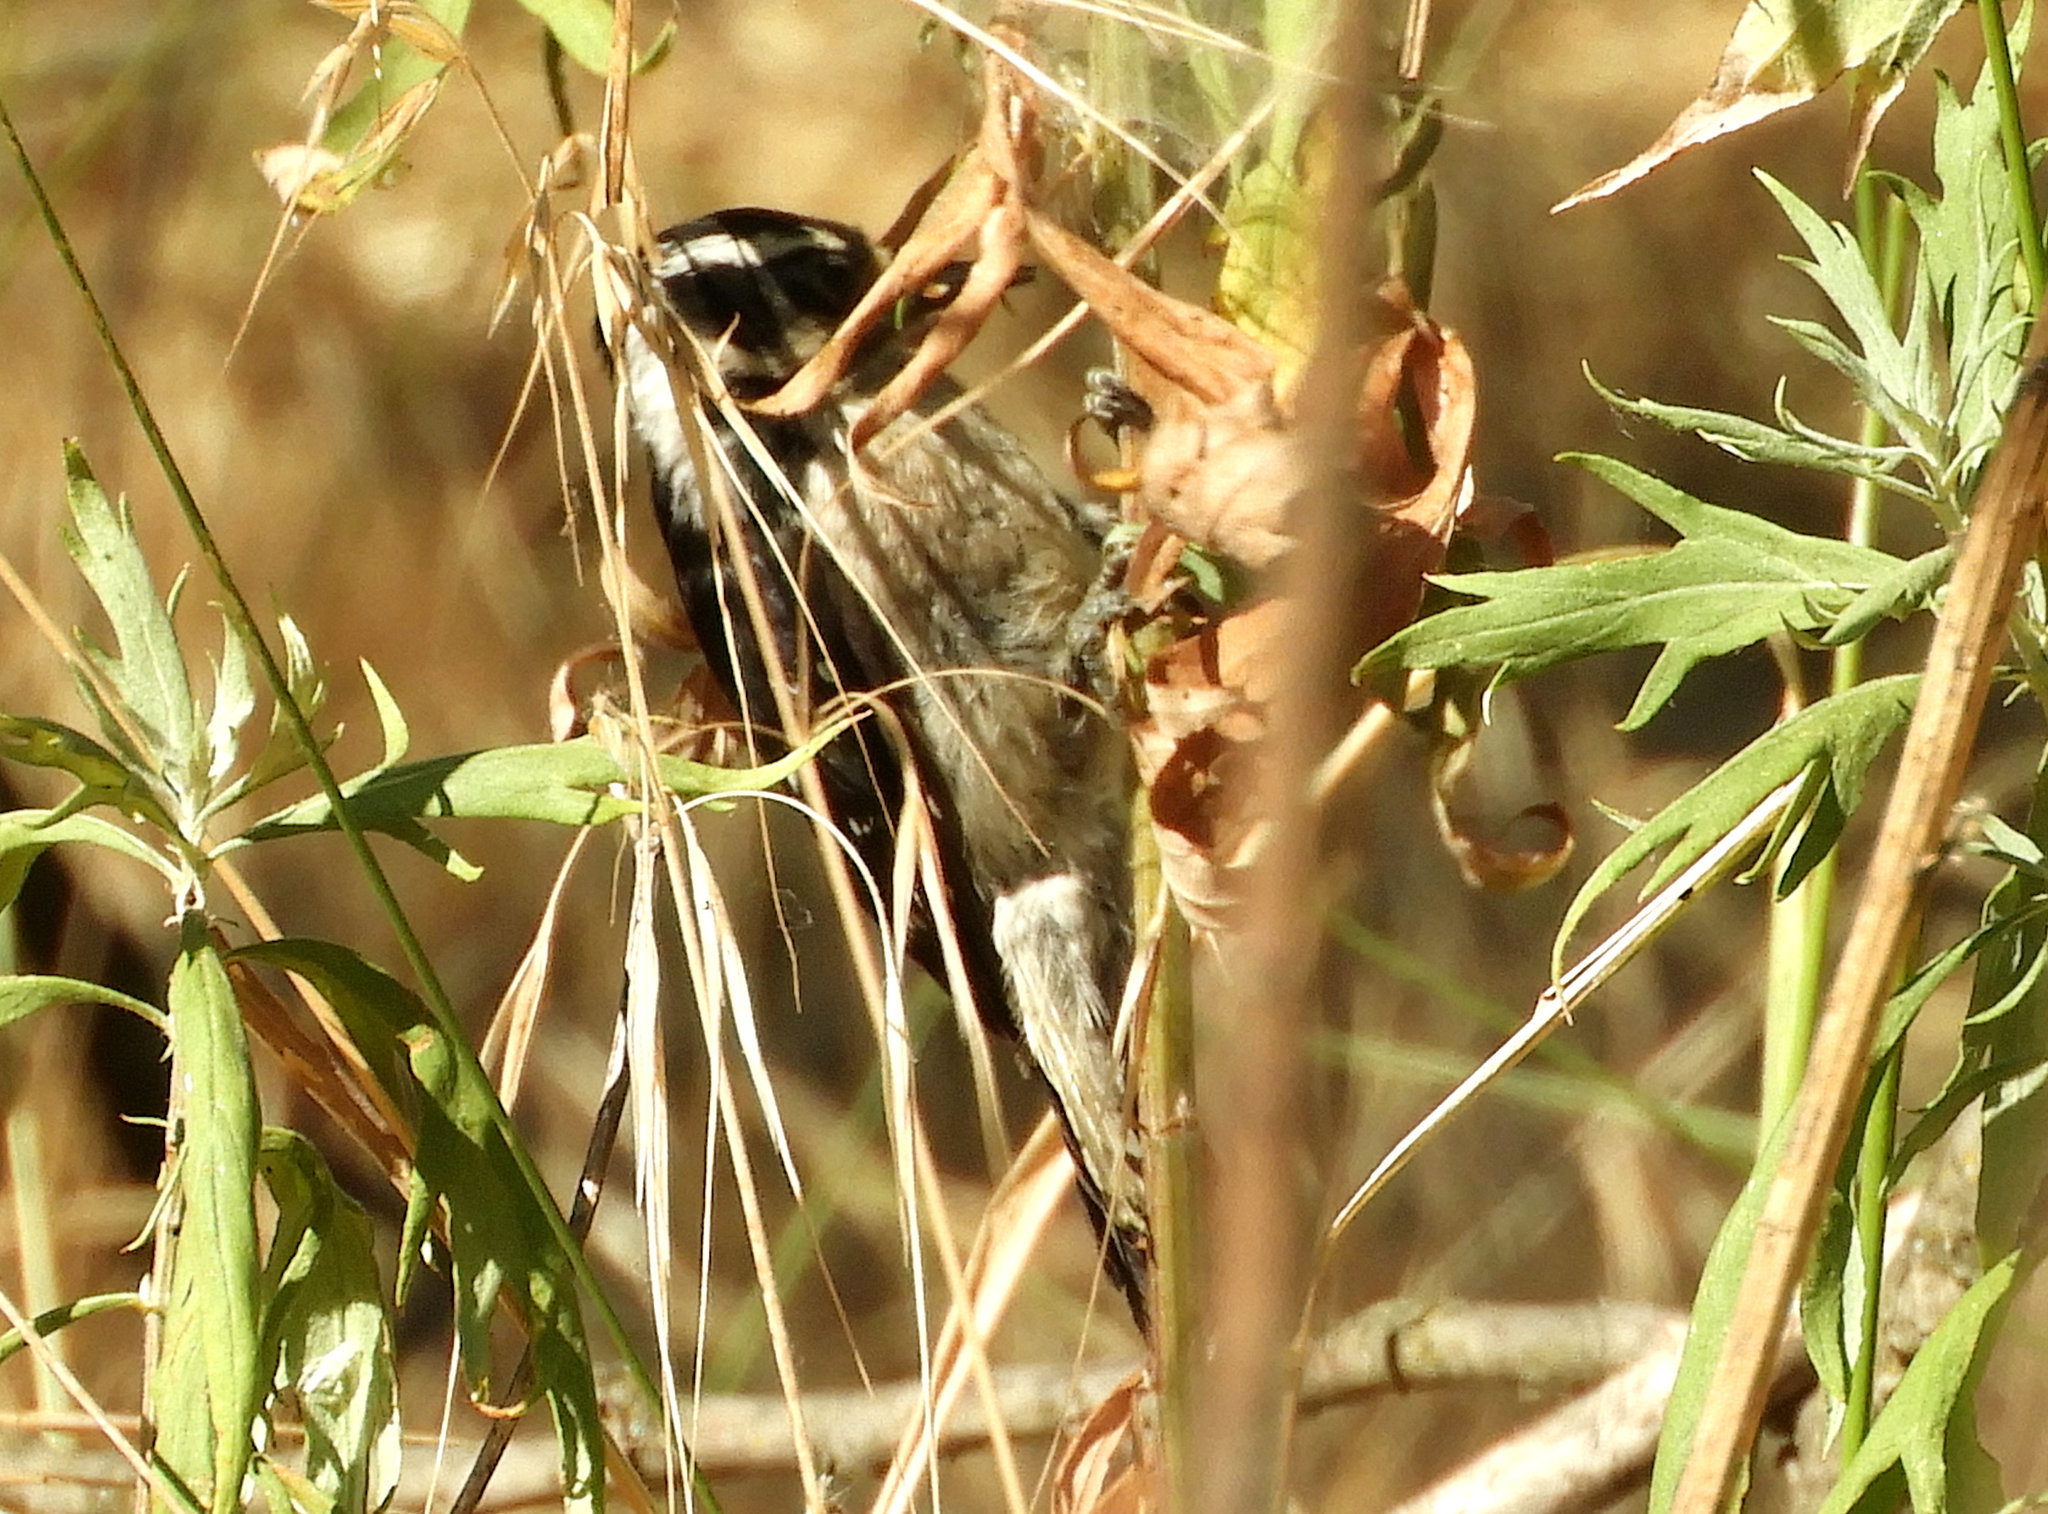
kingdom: Animalia
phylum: Chordata
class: Aves
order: Piciformes
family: Picidae
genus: Dryobates
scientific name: Dryobates pubescens
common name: Downy woodpecker
